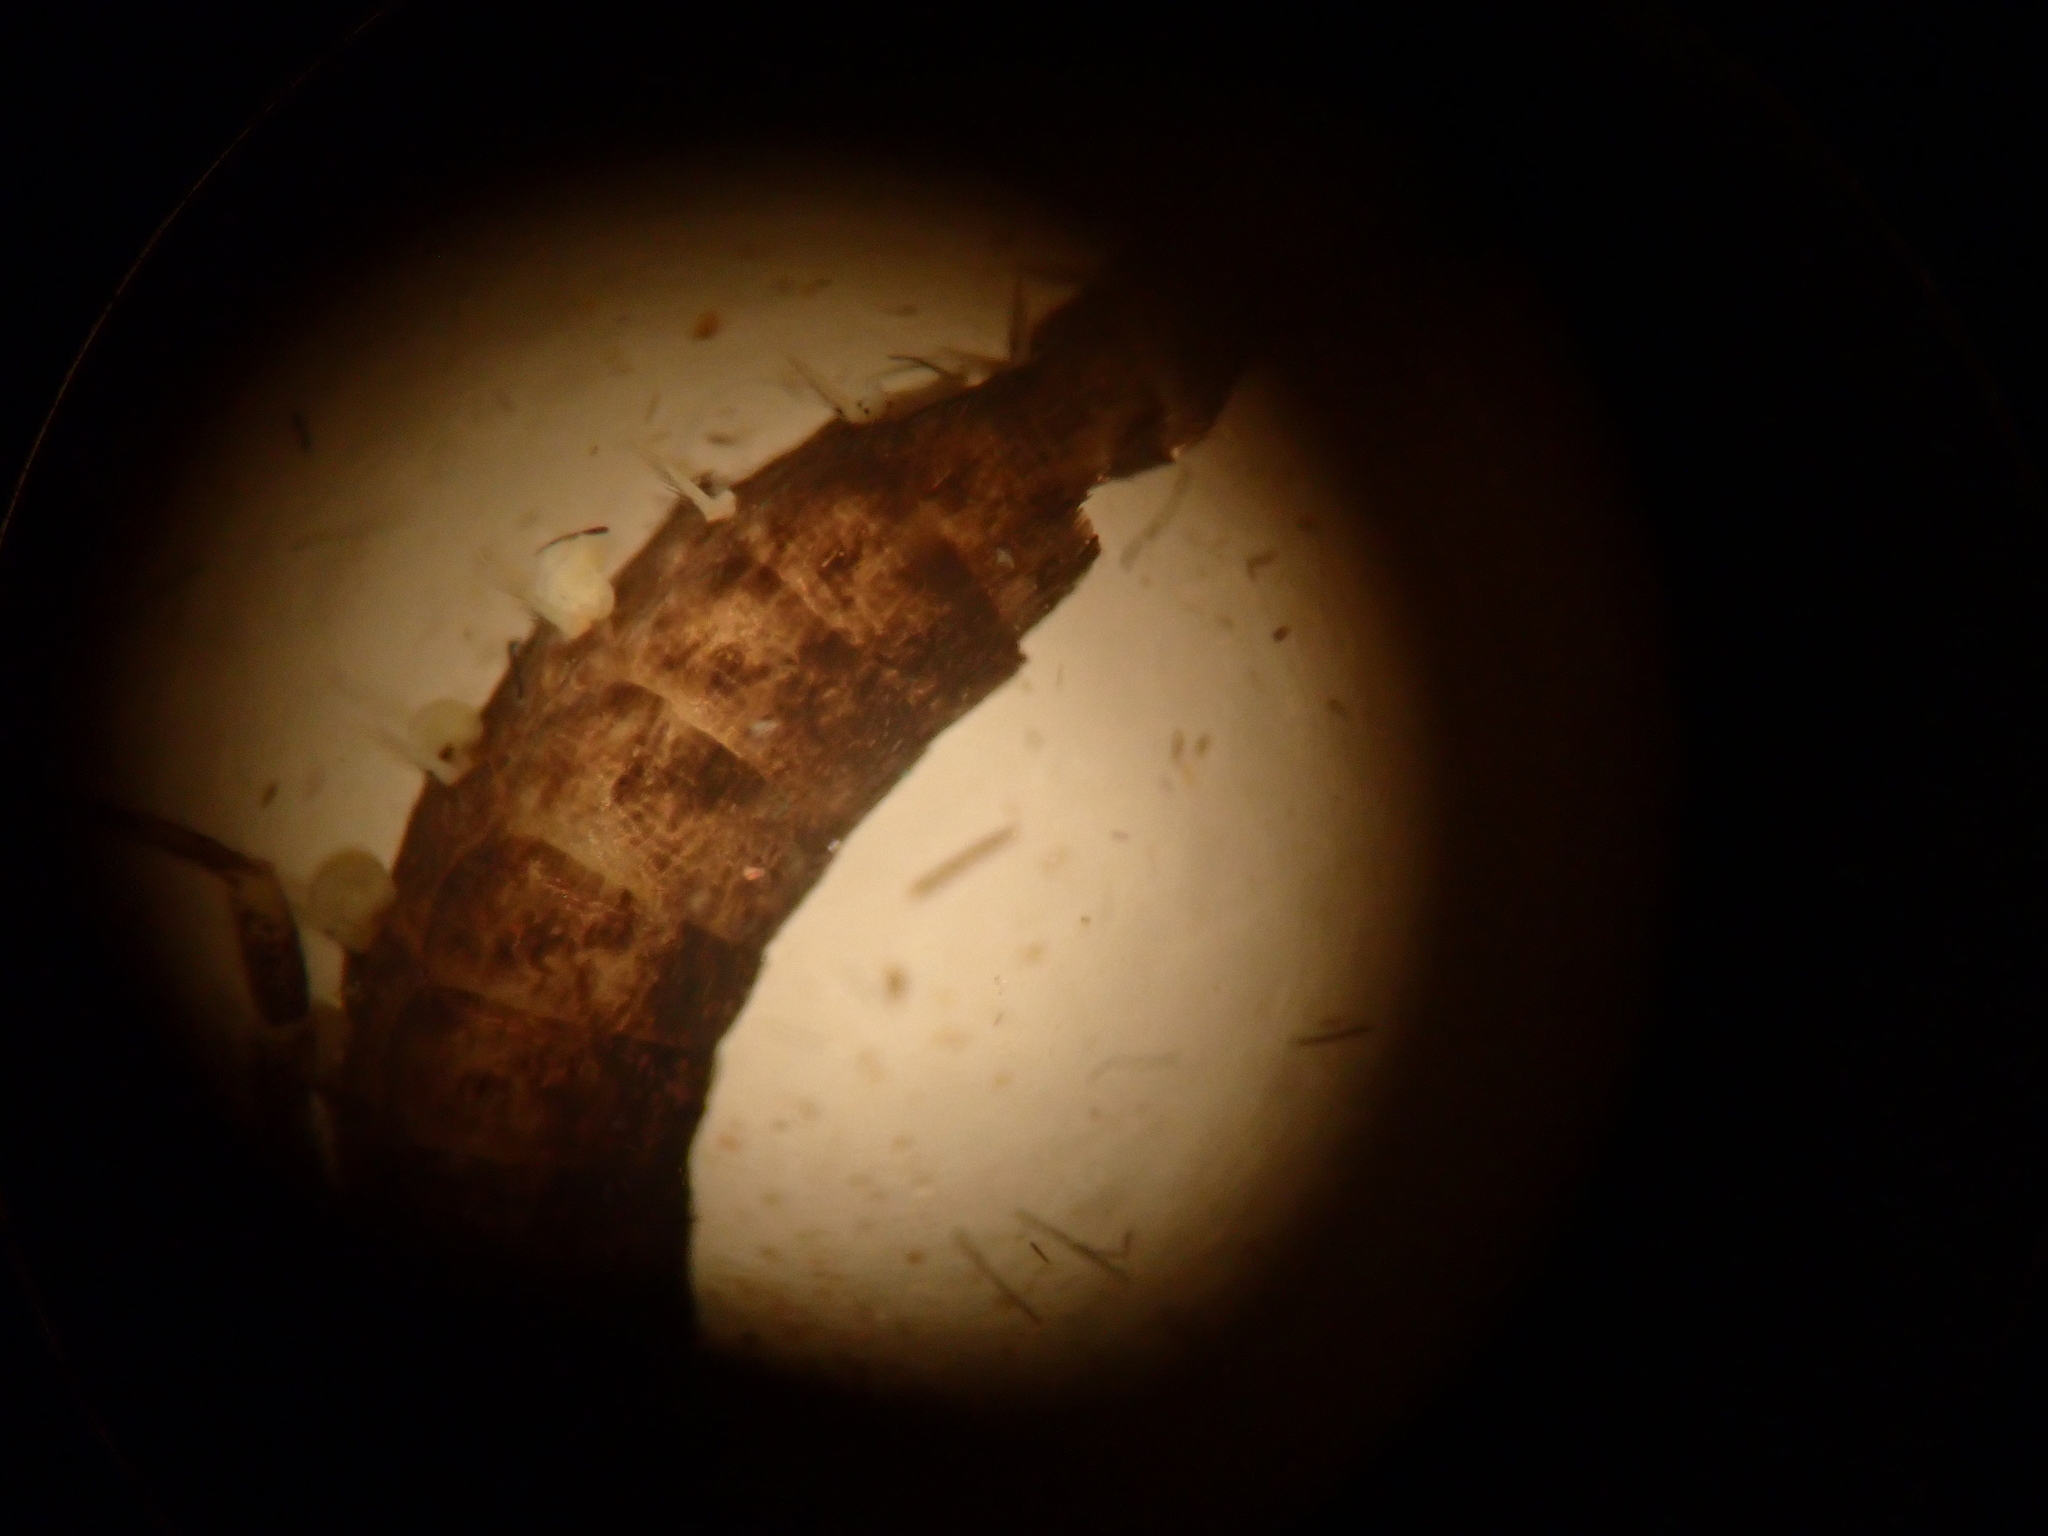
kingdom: Animalia
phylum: Arthropoda
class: Insecta
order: Archaeognatha
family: Machilidae
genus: Trigoniophthalmus
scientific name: Trigoniophthalmus alternatus
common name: Jumping bristletail
